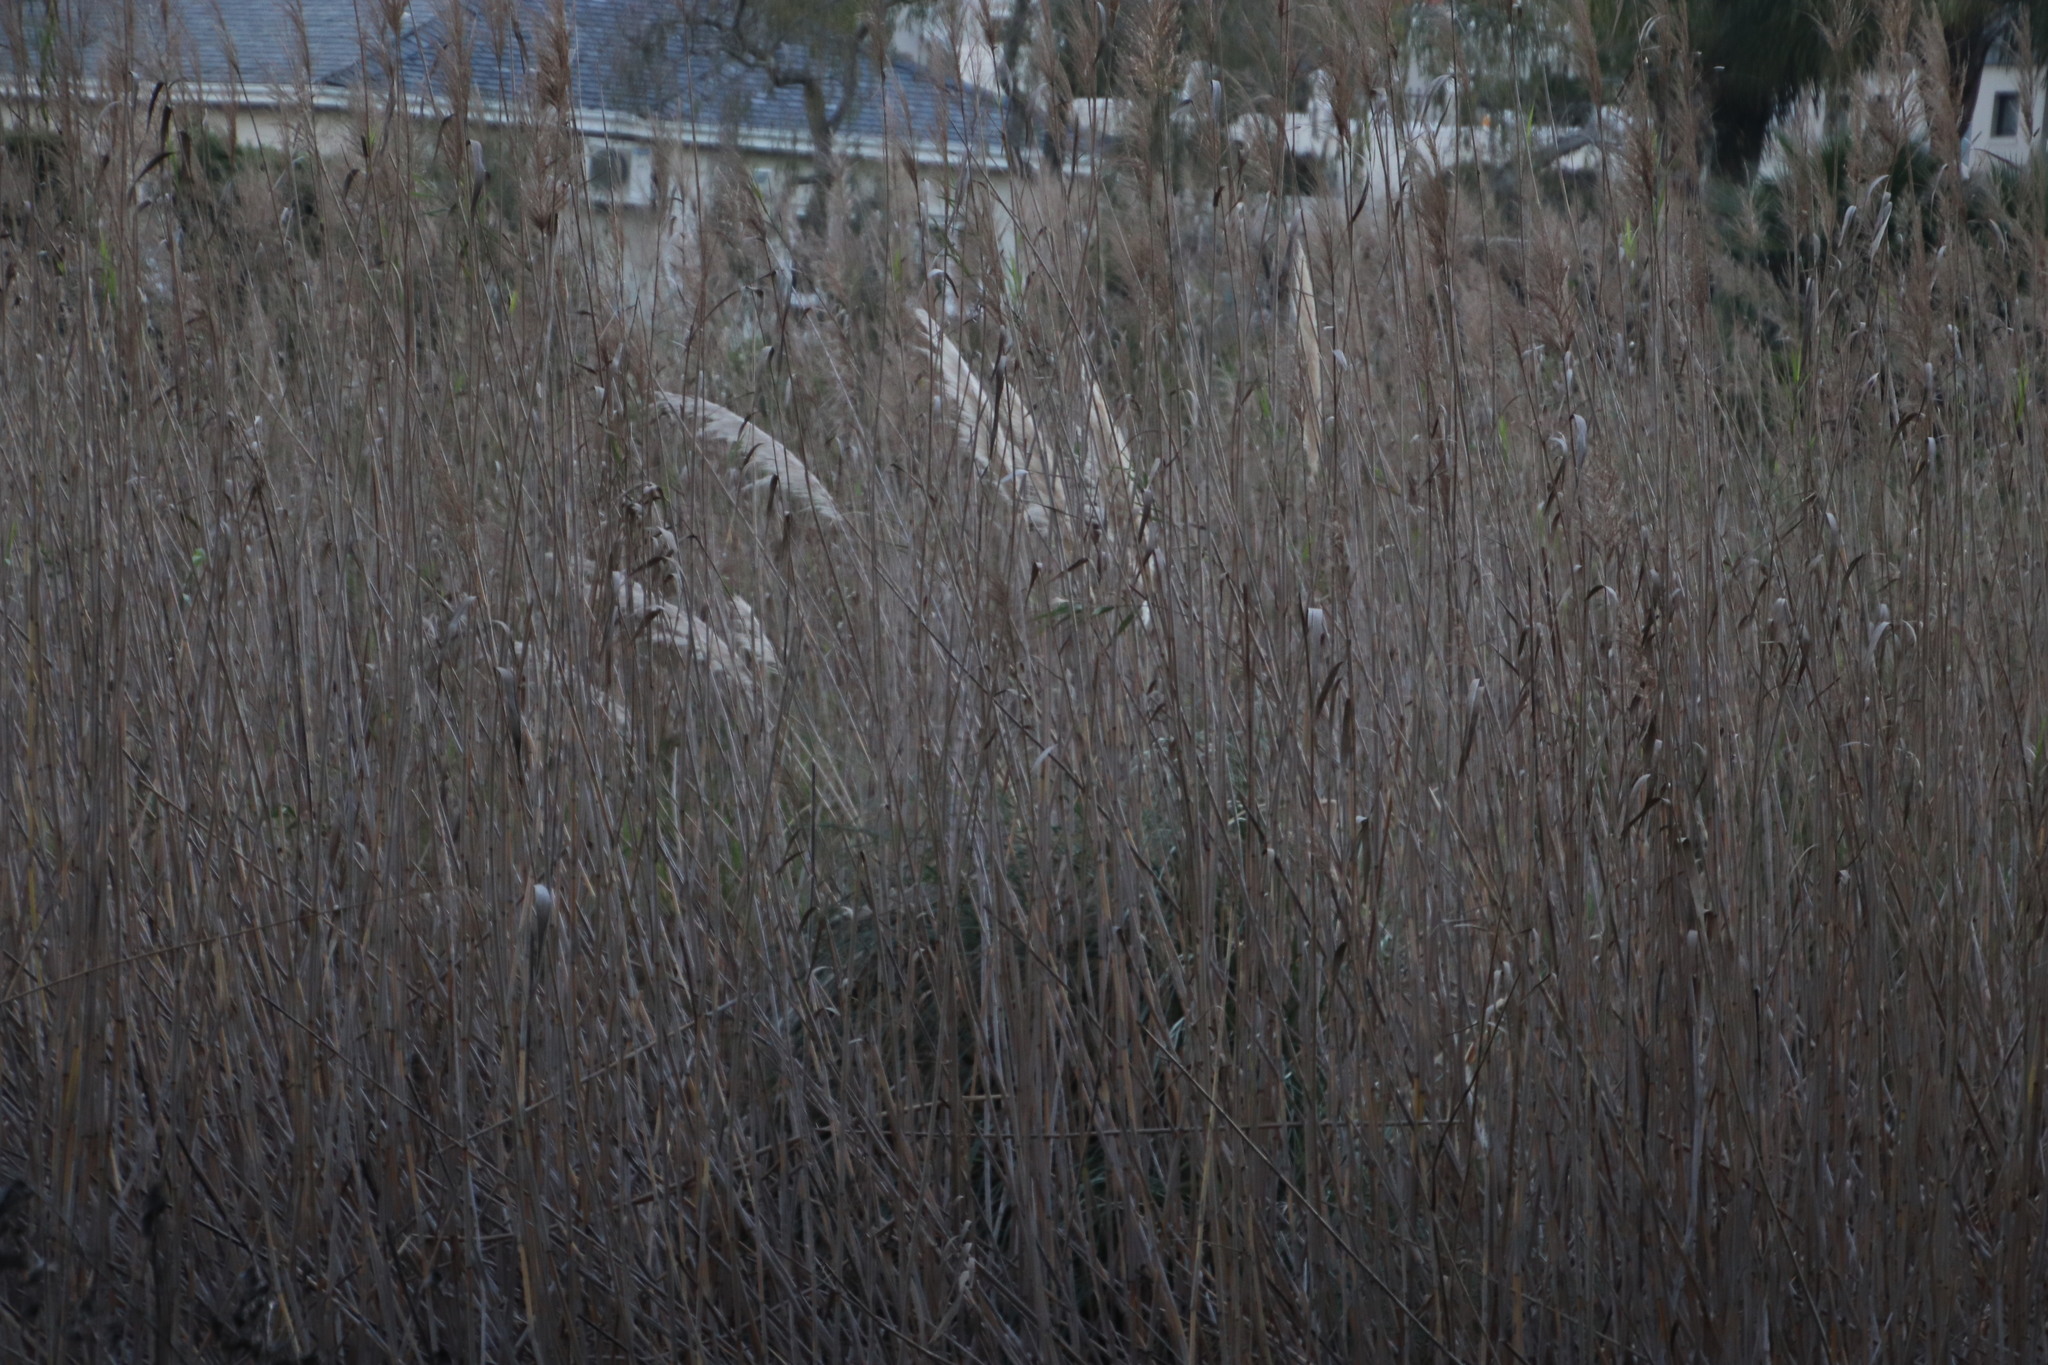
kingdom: Plantae
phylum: Tracheophyta
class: Liliopsida
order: Poales
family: Poaceae
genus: Cortaderia
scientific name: Cortaderia selloana
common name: Uruguayan pampas grass
